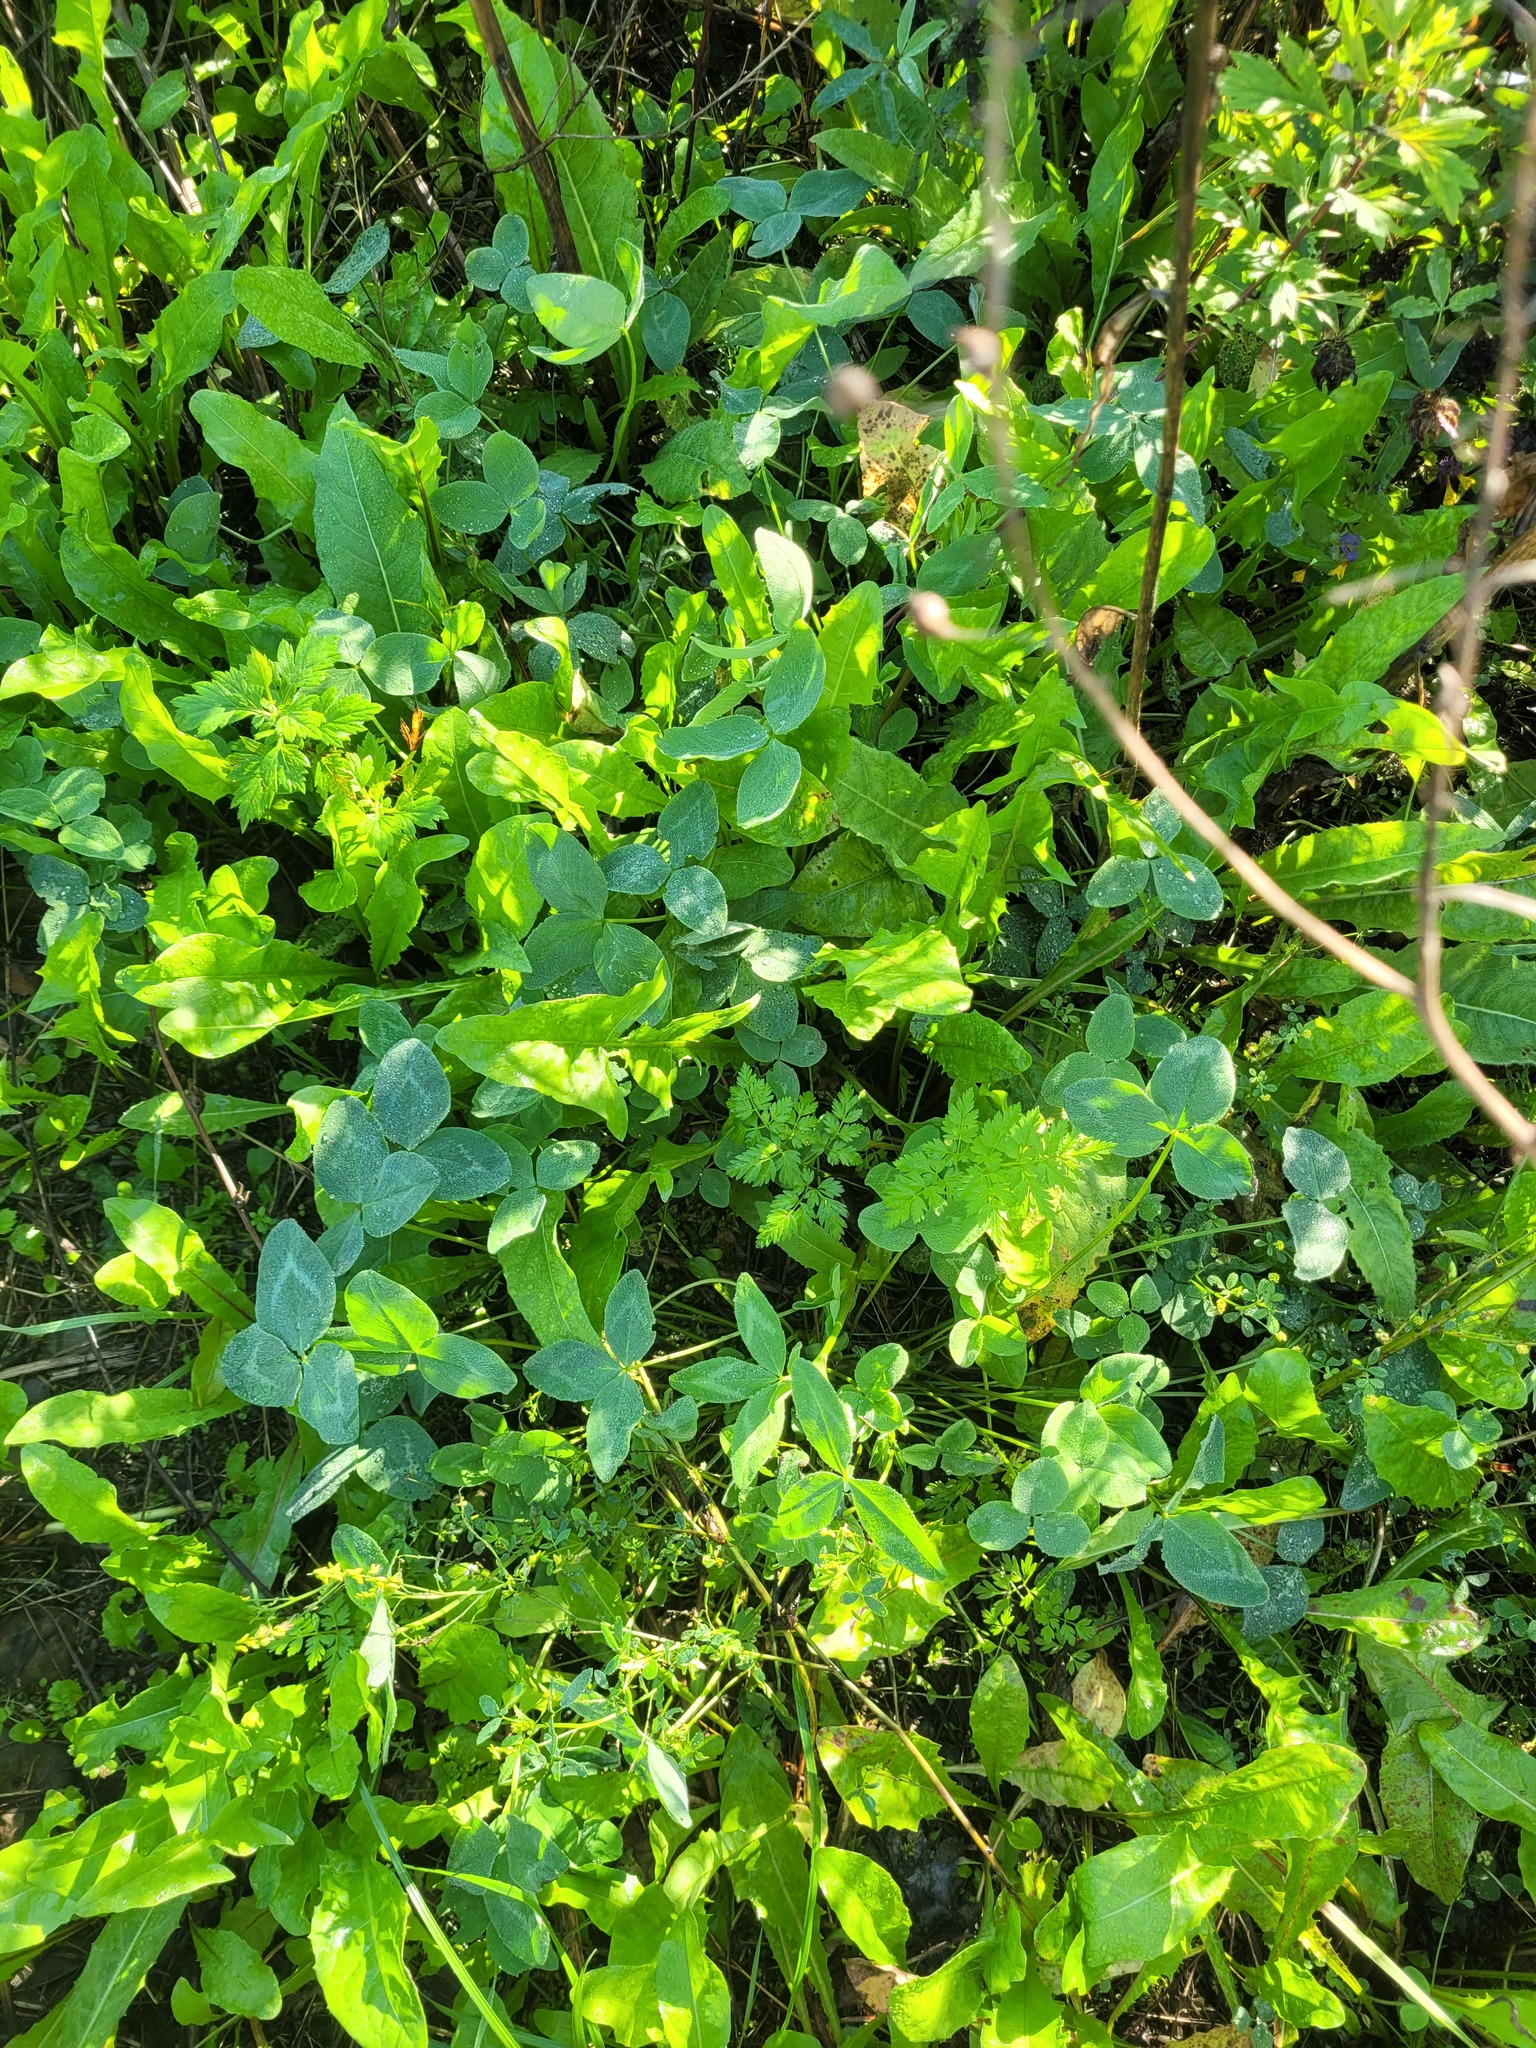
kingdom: Plantae
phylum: Tracheophyta
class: Magnoliopsida
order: Fabales
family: Fabaceae
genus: Trifolium
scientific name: Trifolium pratense
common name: Red clover
